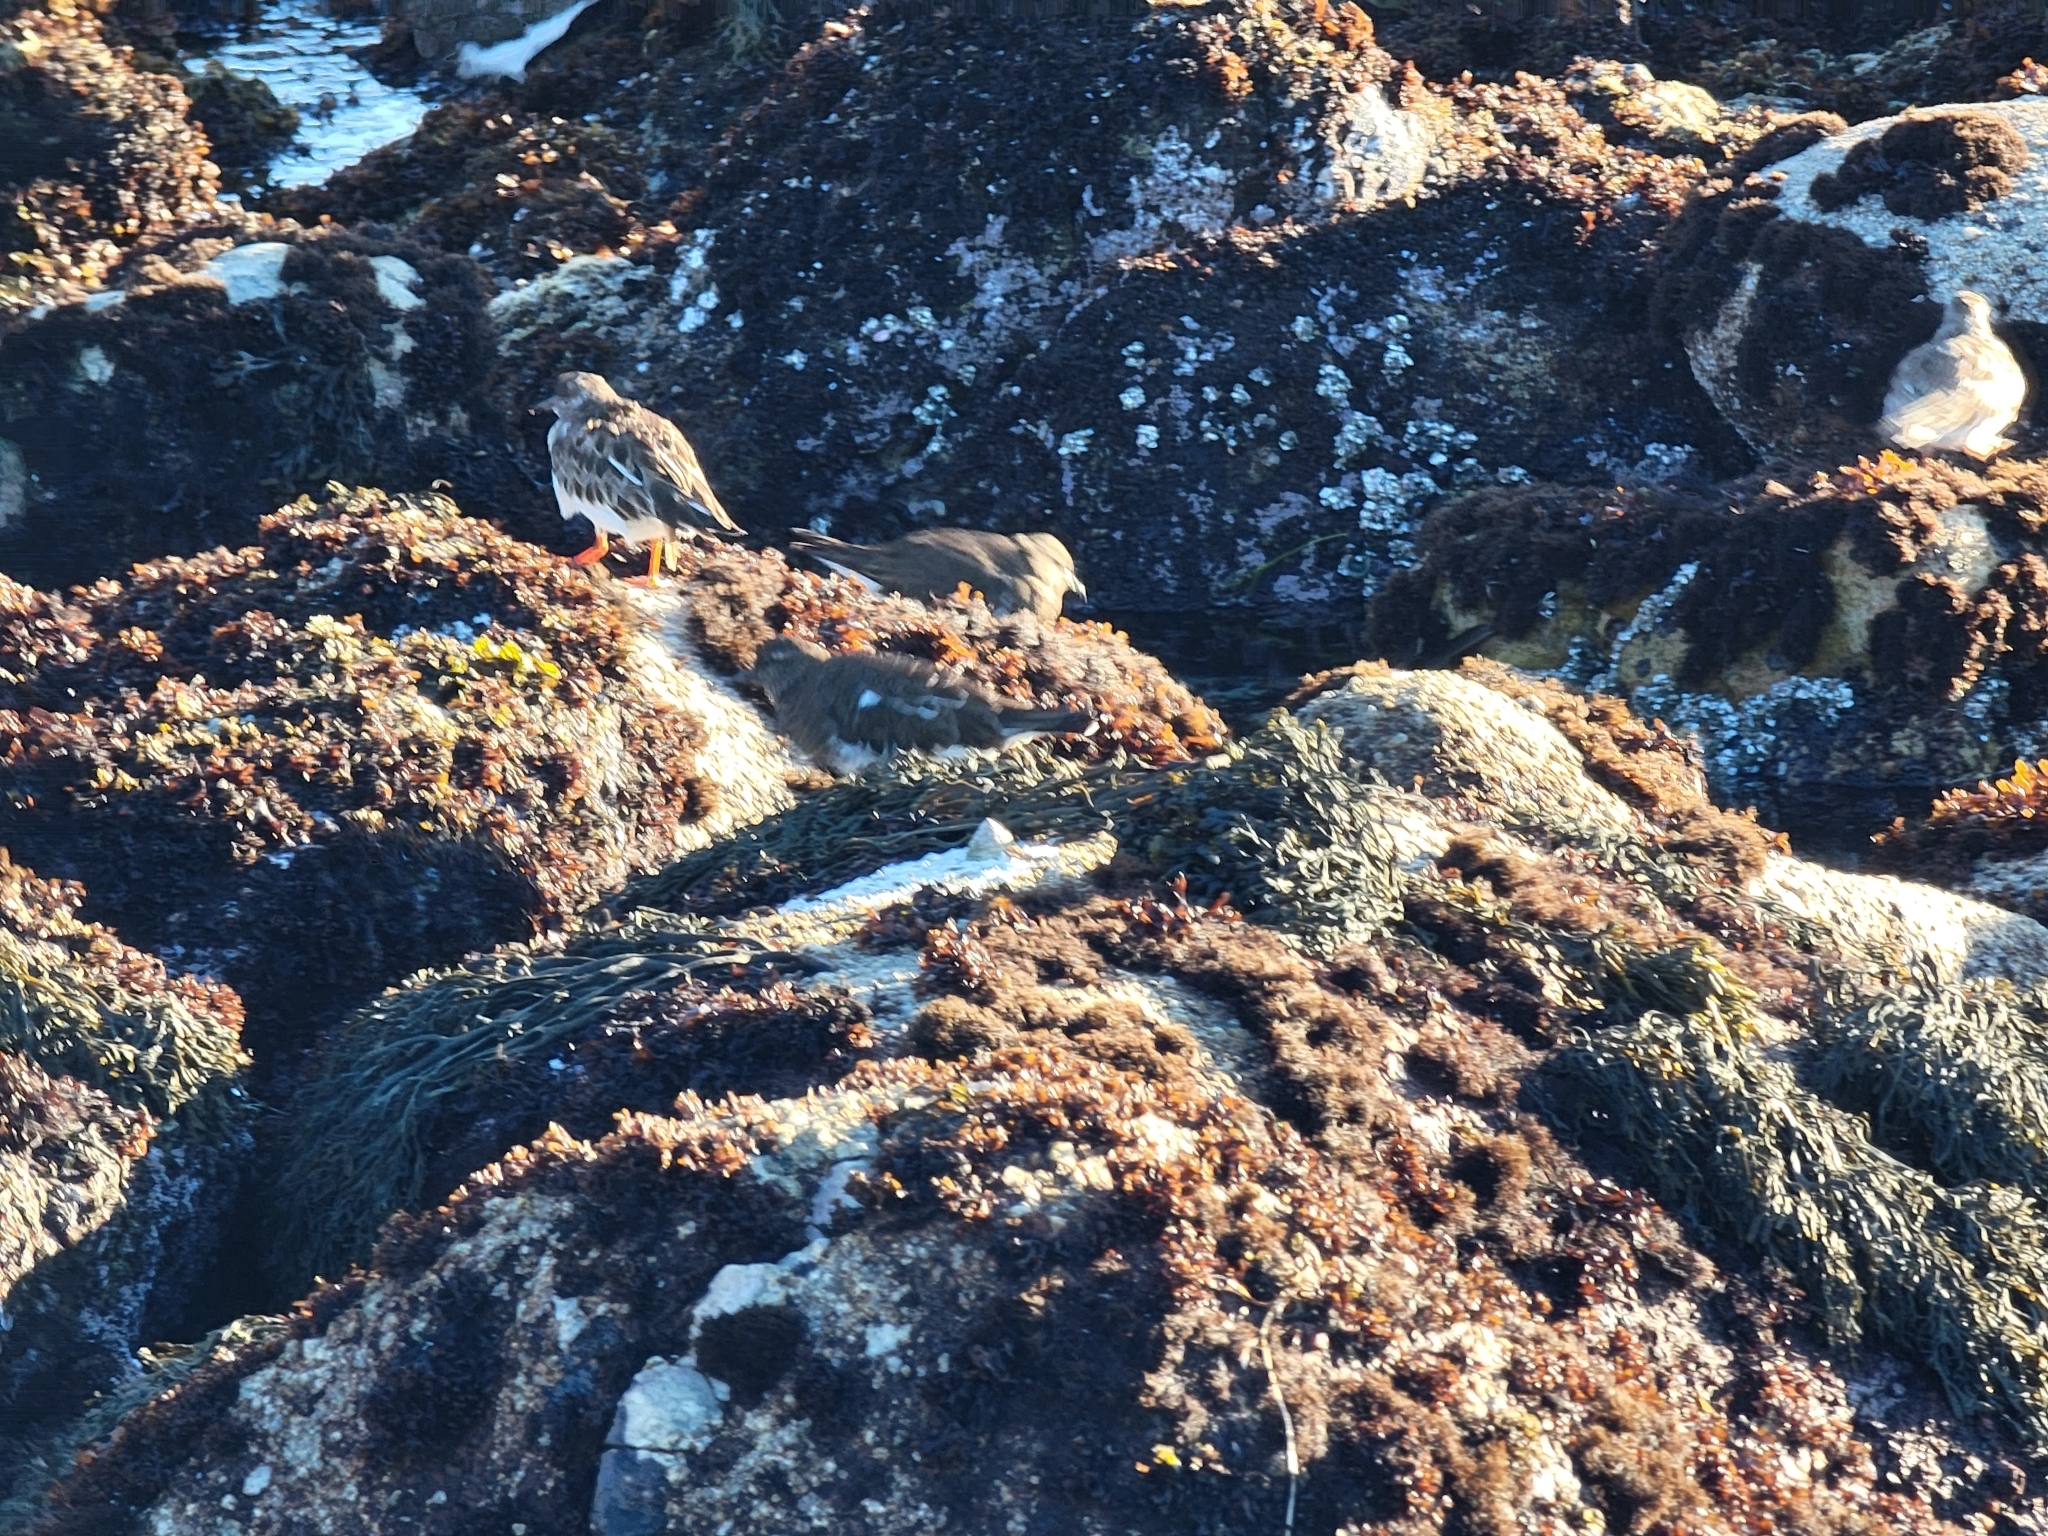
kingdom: Animalia
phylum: Chordata
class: Aves
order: Charadriiformes
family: Scolopacidae
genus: Arenaria
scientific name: Arenaria melanocephala
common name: Black turnstone
